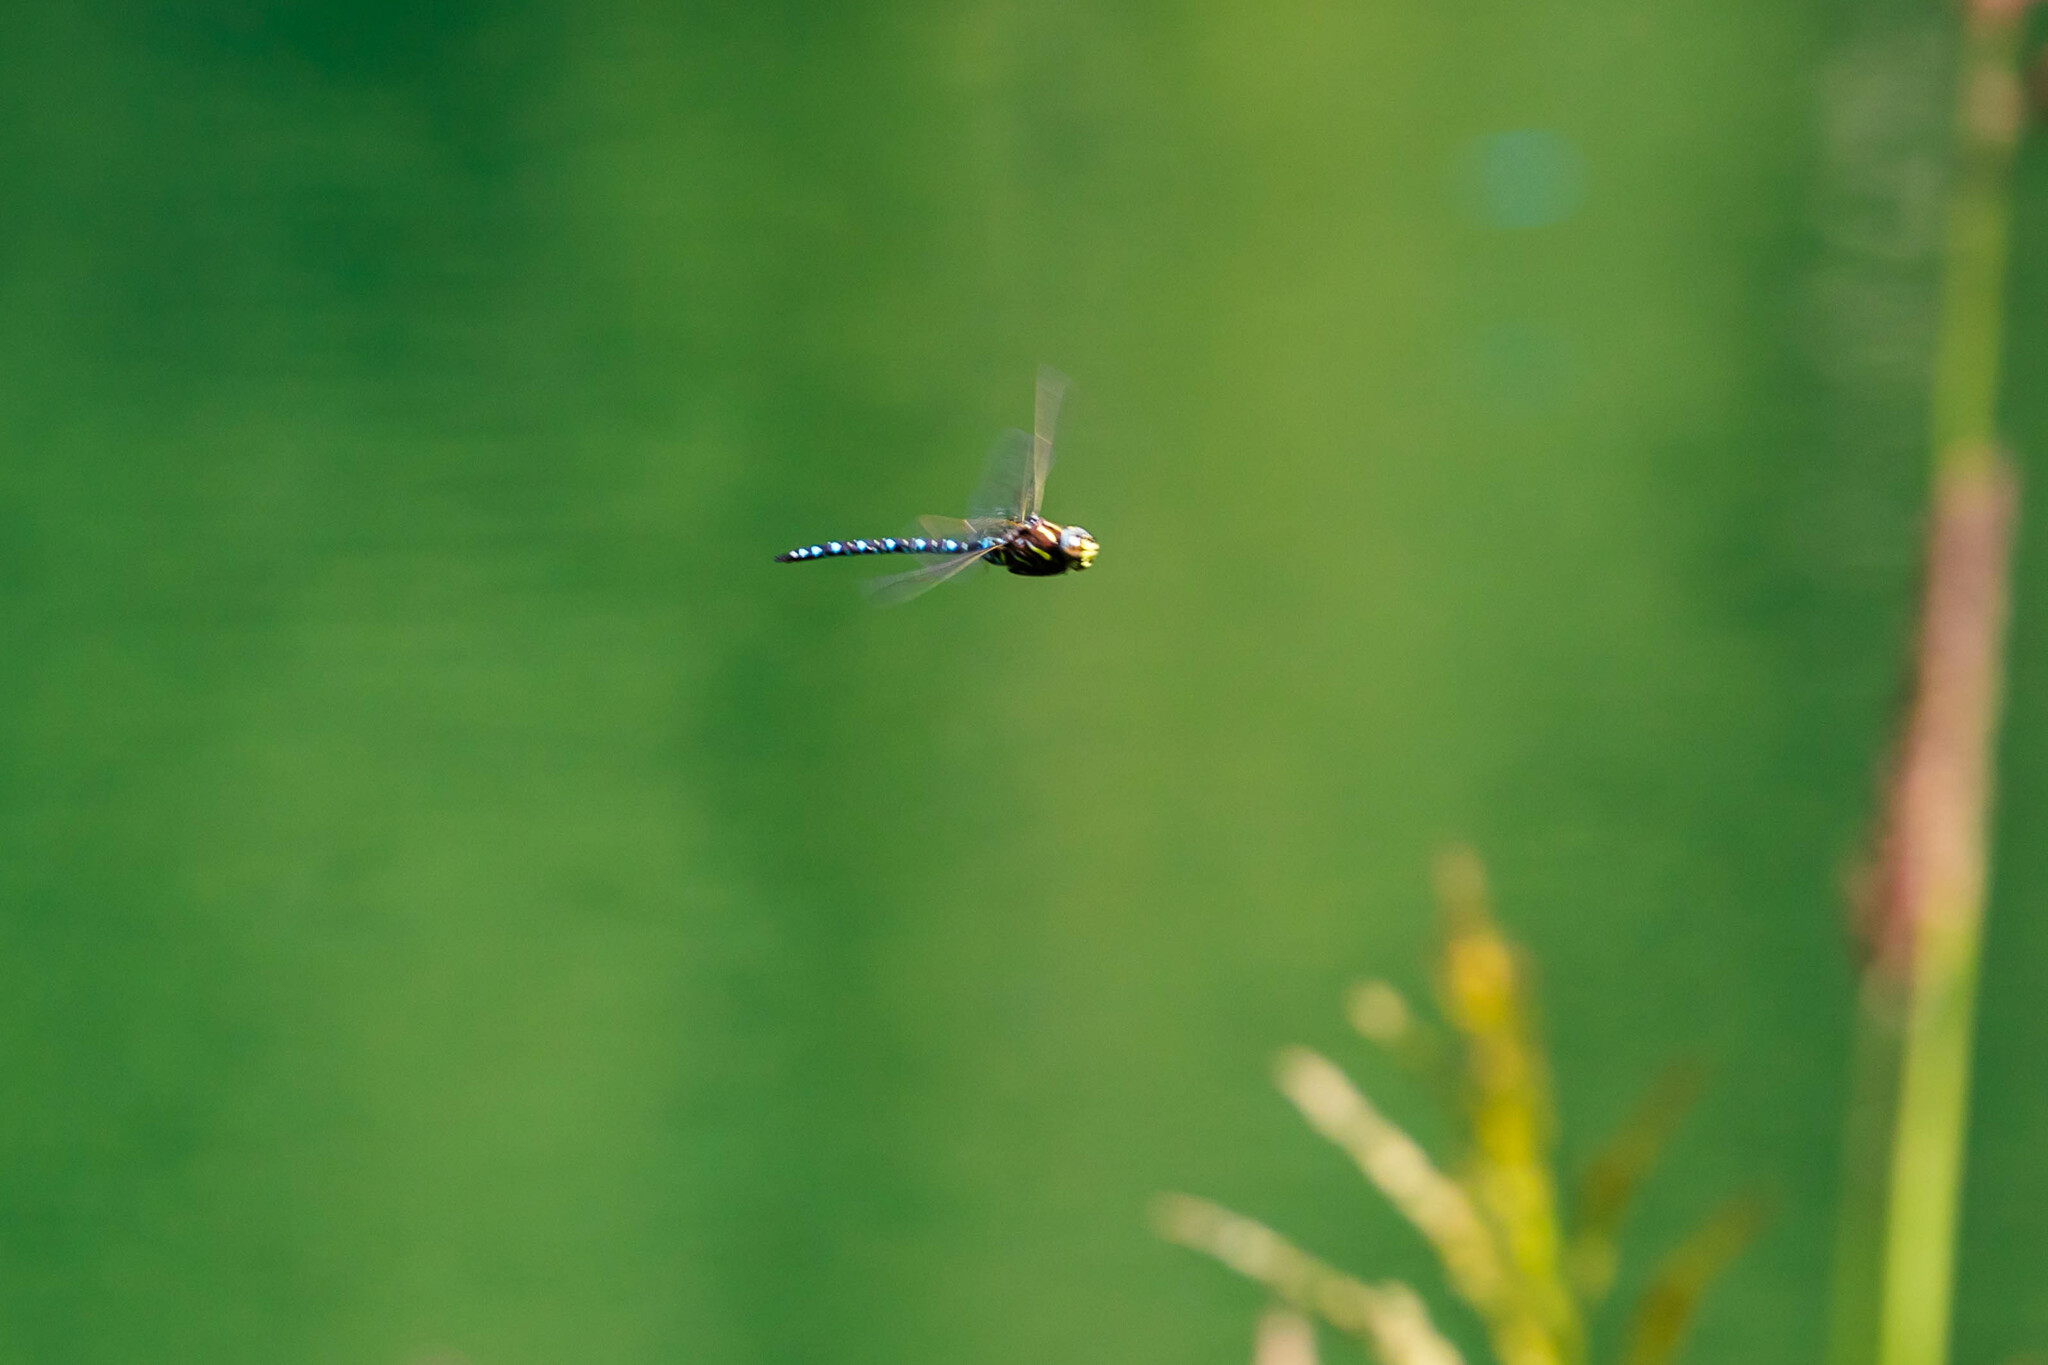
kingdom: Animalia
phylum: Arthropoda
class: Insecta
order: Odonata
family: Aeshnidae
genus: Aeshna
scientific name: Aeshna juncea
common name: Moorland hawker
